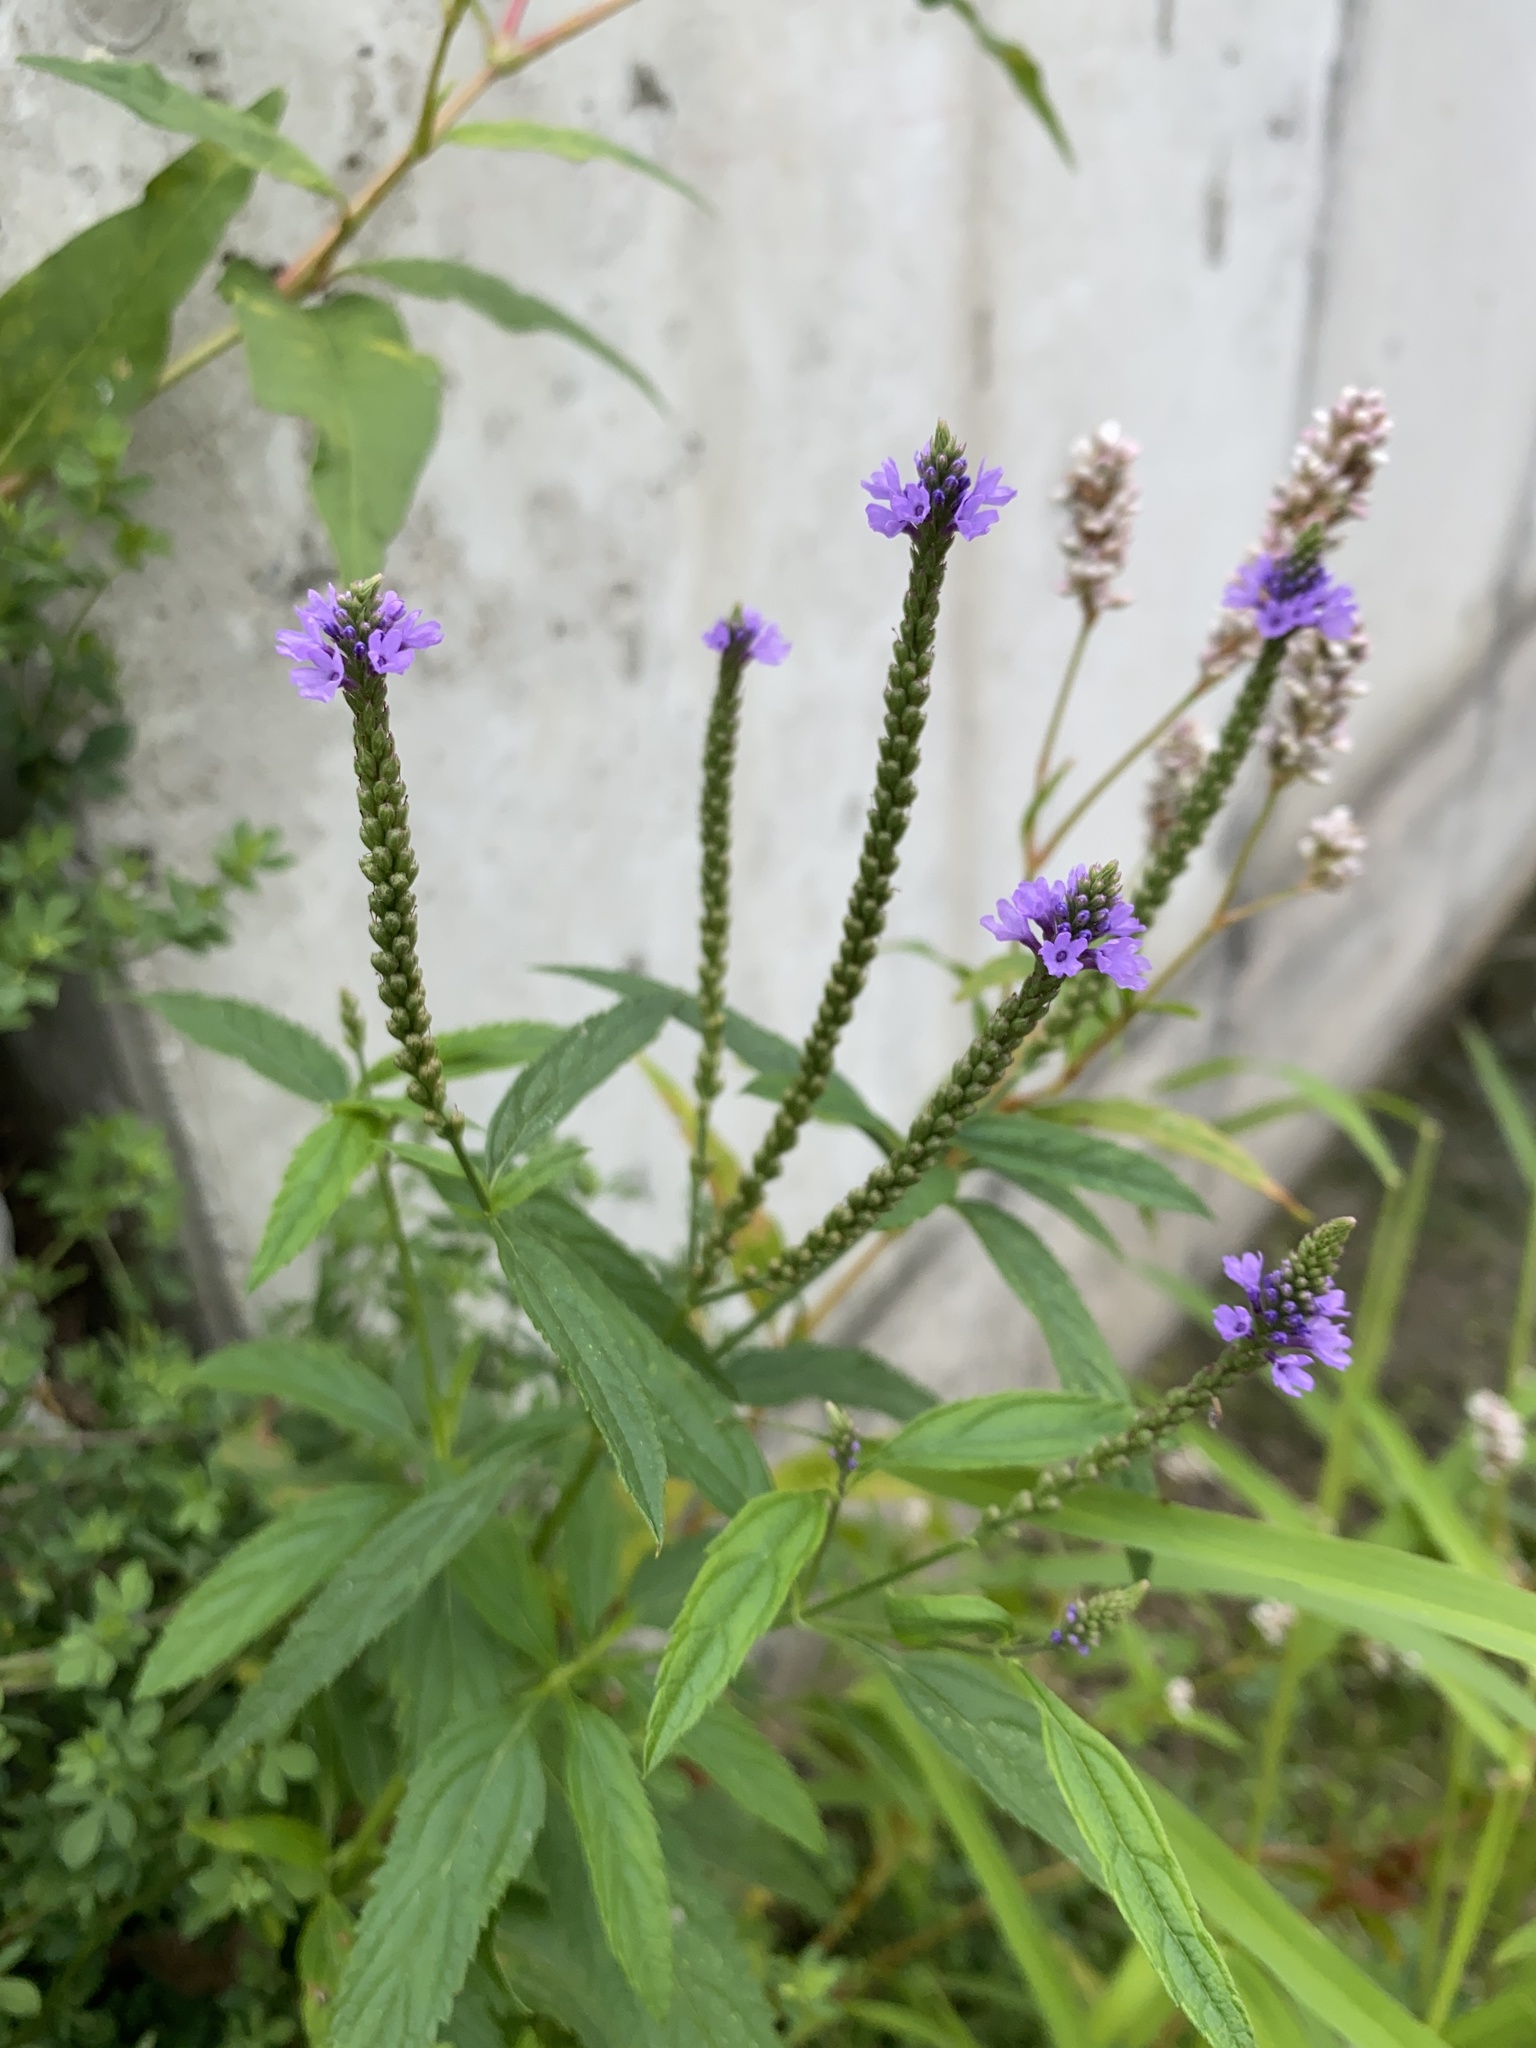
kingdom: Plantae
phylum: Tracheophyta
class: Magnoliopsida
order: Lamiales
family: Verbenaceae
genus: Verbena
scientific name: Verbena hastata
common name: American blue vervain
